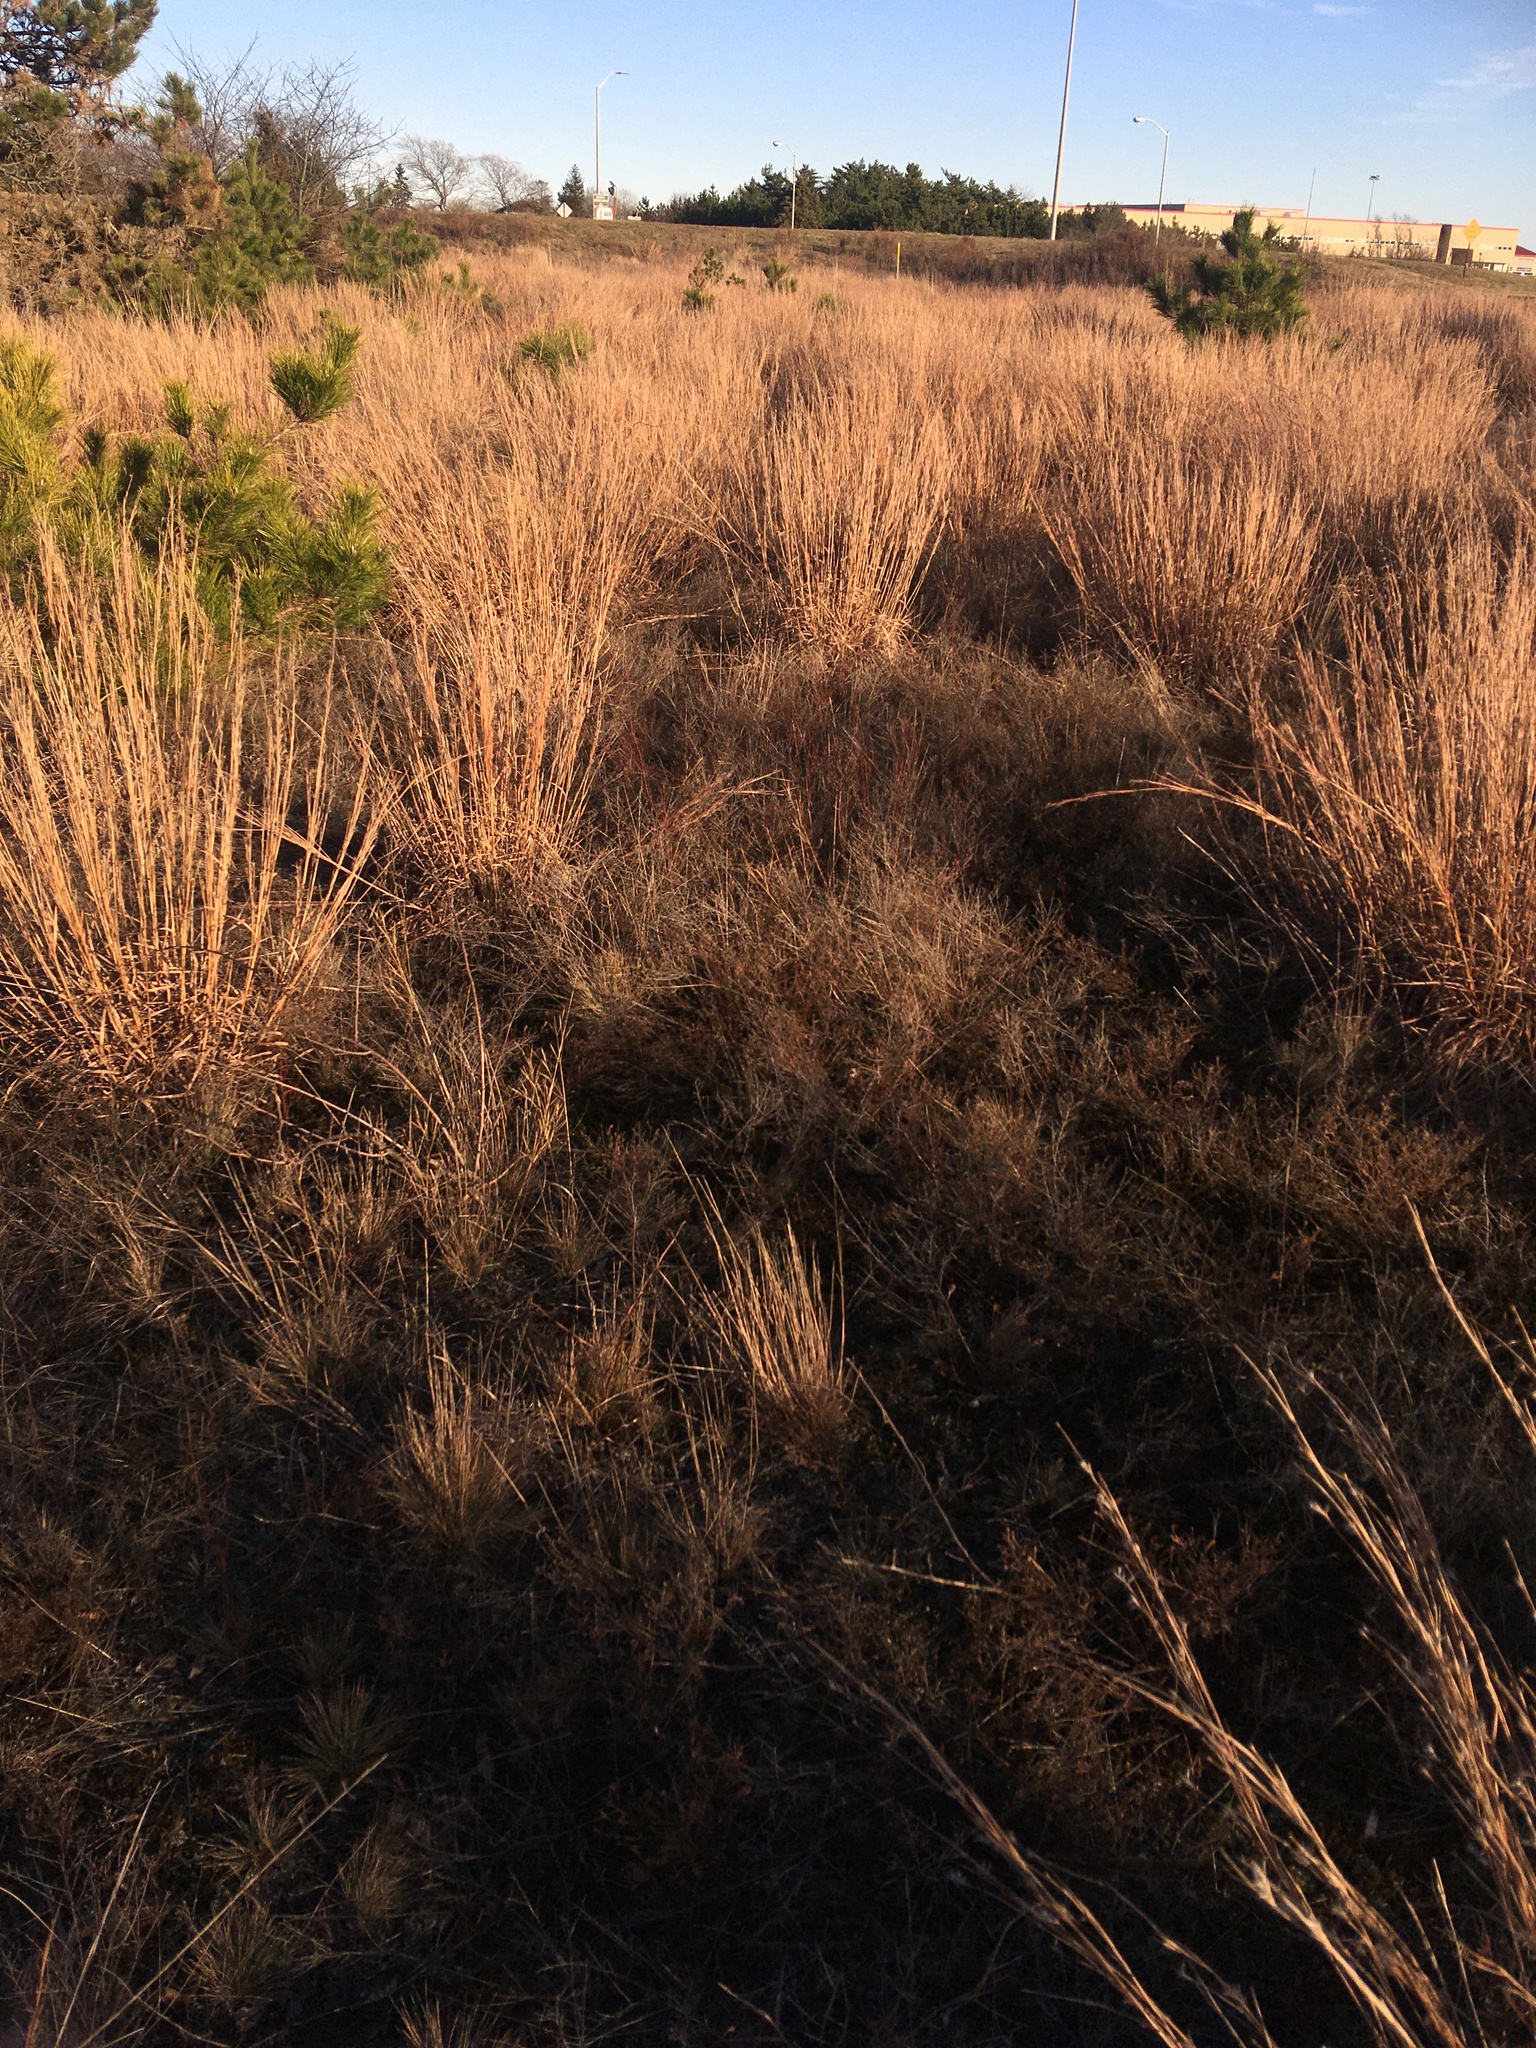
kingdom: Plantae
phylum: Tracheophyta
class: Magnoliopsida
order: Caryophyllales
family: Polygonaceae
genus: Polygonella
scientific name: Polygonella articulata
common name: Coastal jointweed
